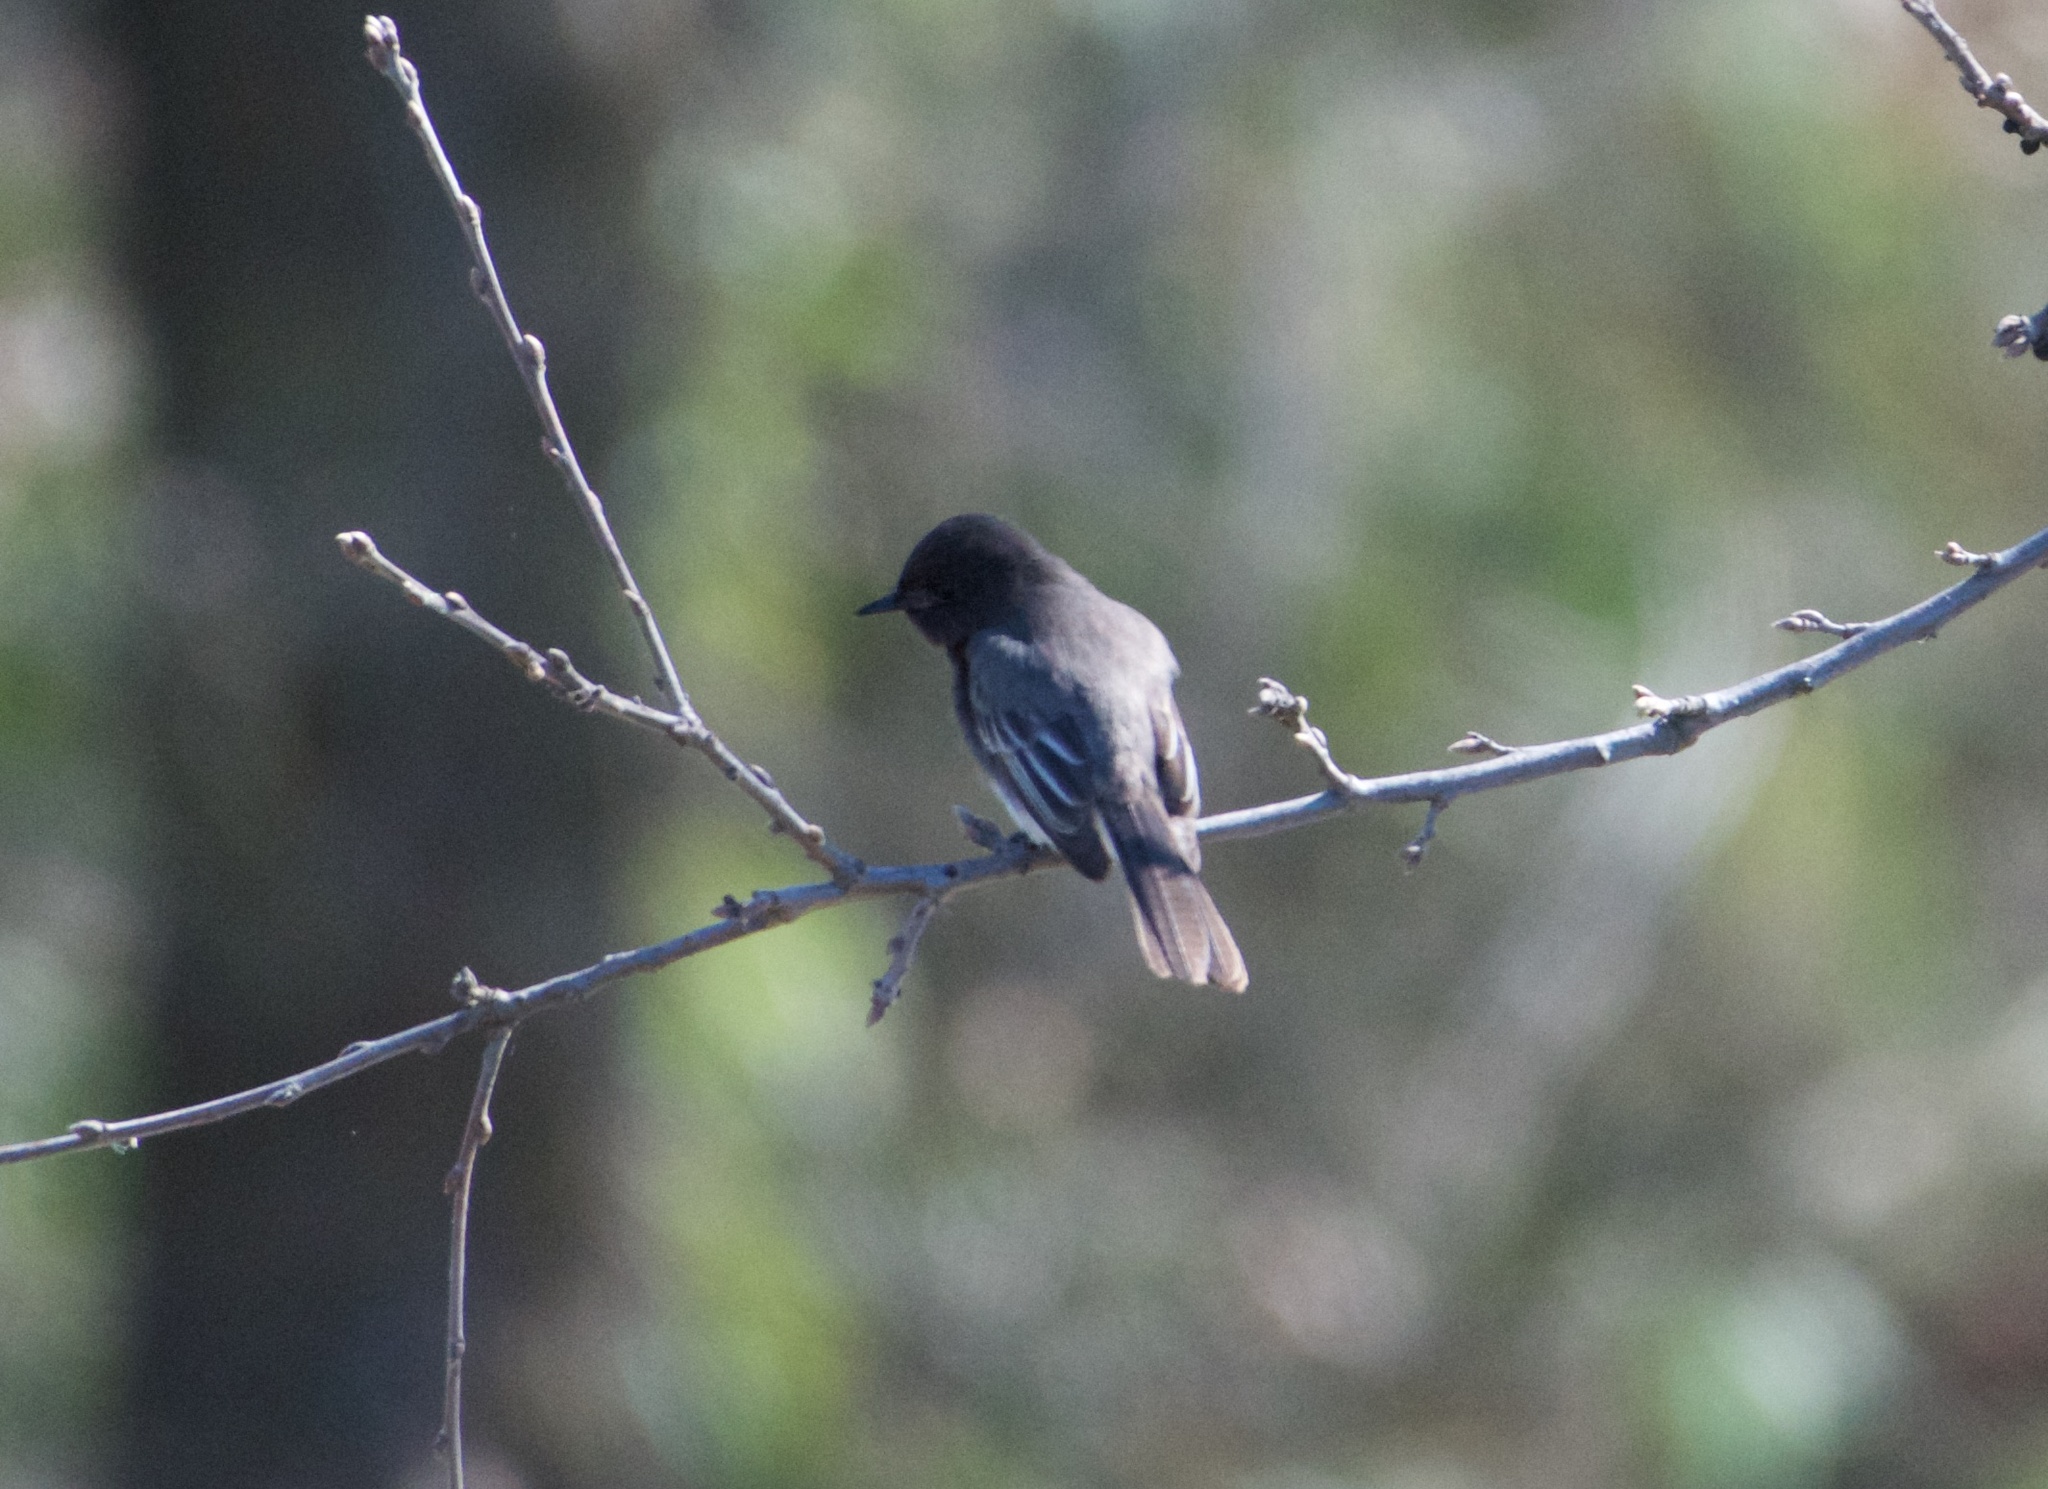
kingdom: Animalia
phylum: Chordata
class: Aves
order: Passeriformes
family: Tyrannidae
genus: Sayornis
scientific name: Sayornis nigricans
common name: Black phoebe
